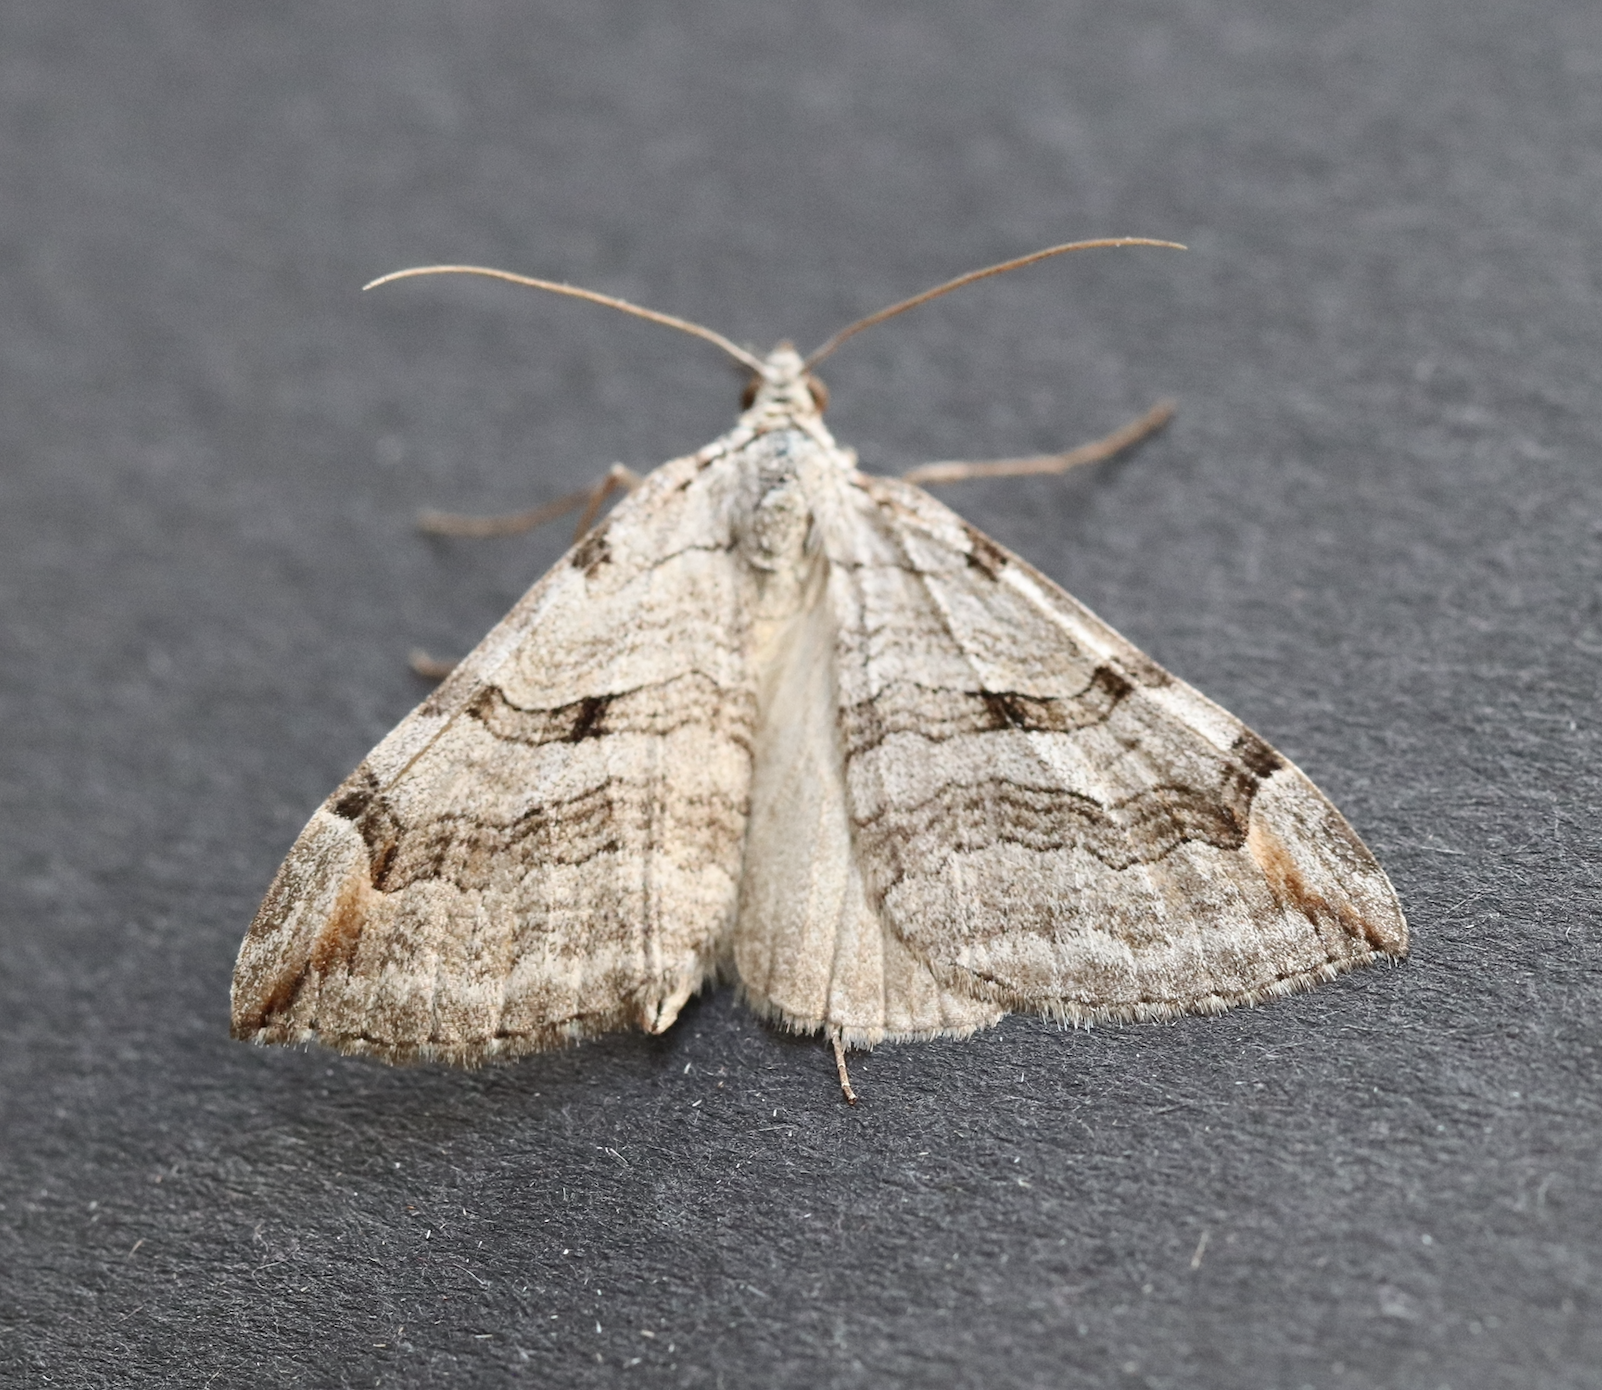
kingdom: Animalia
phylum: Arthropoda
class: Insecta
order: Lepidoptera
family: Geometridae
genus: Aplocera
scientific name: Aplocera plagiata
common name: Treble-bar
